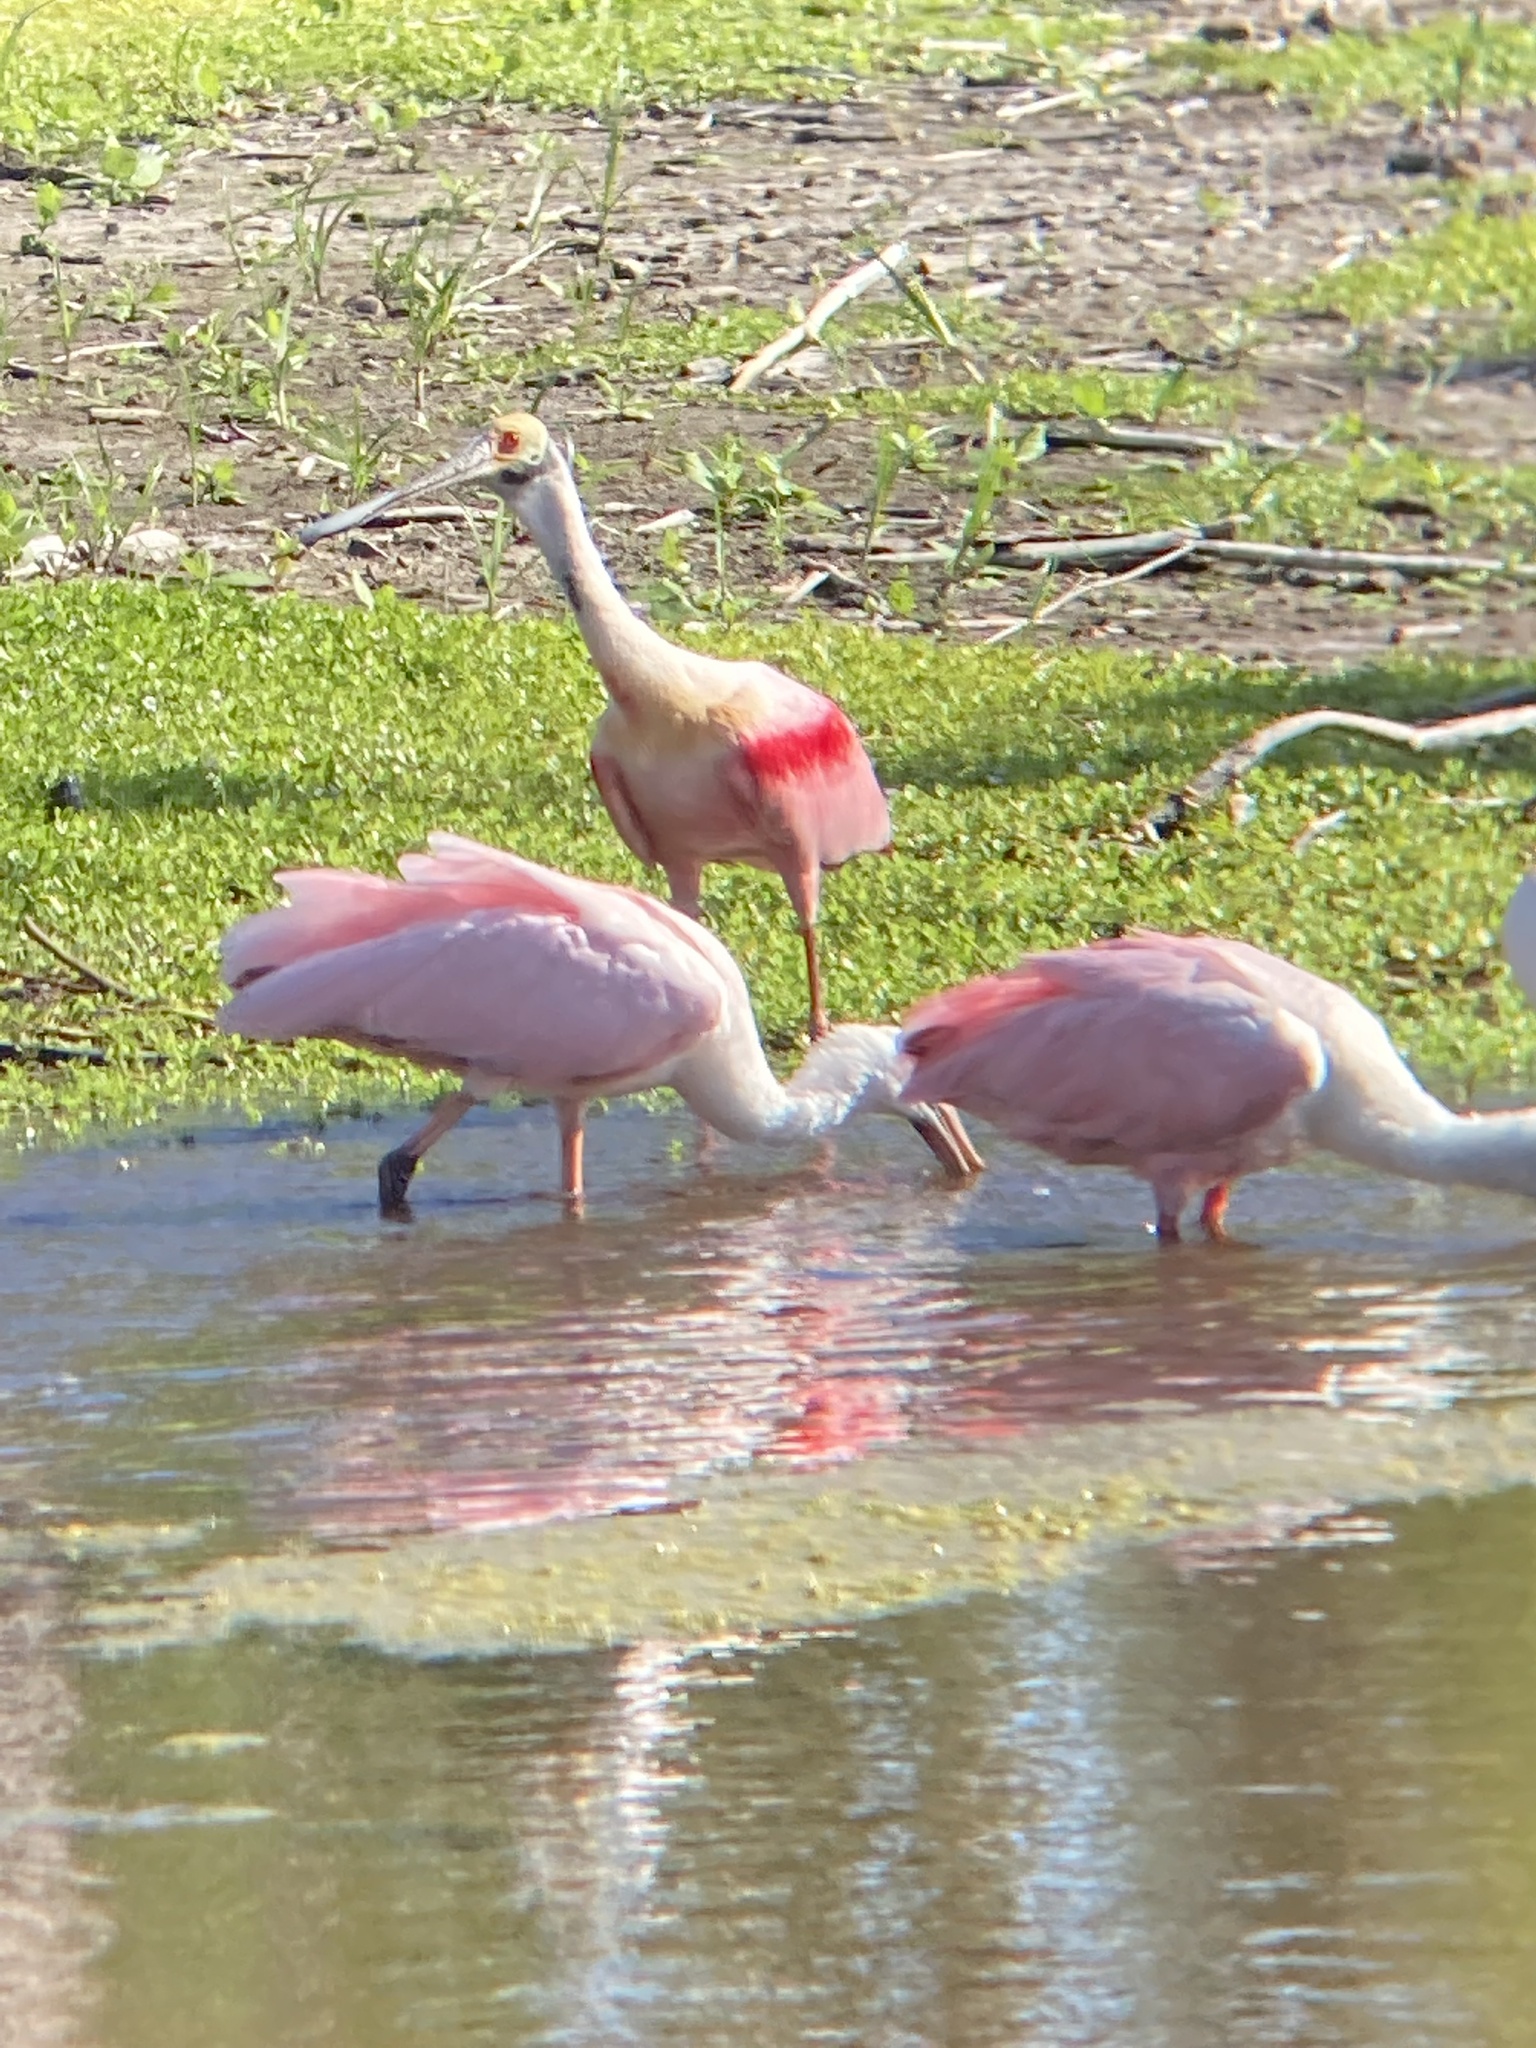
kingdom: Animalia
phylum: Chordata
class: Aves
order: Pelecaniformes
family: Threskiornithidae
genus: Platalea
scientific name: Platalea ajaja
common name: Roseate spoonbill
